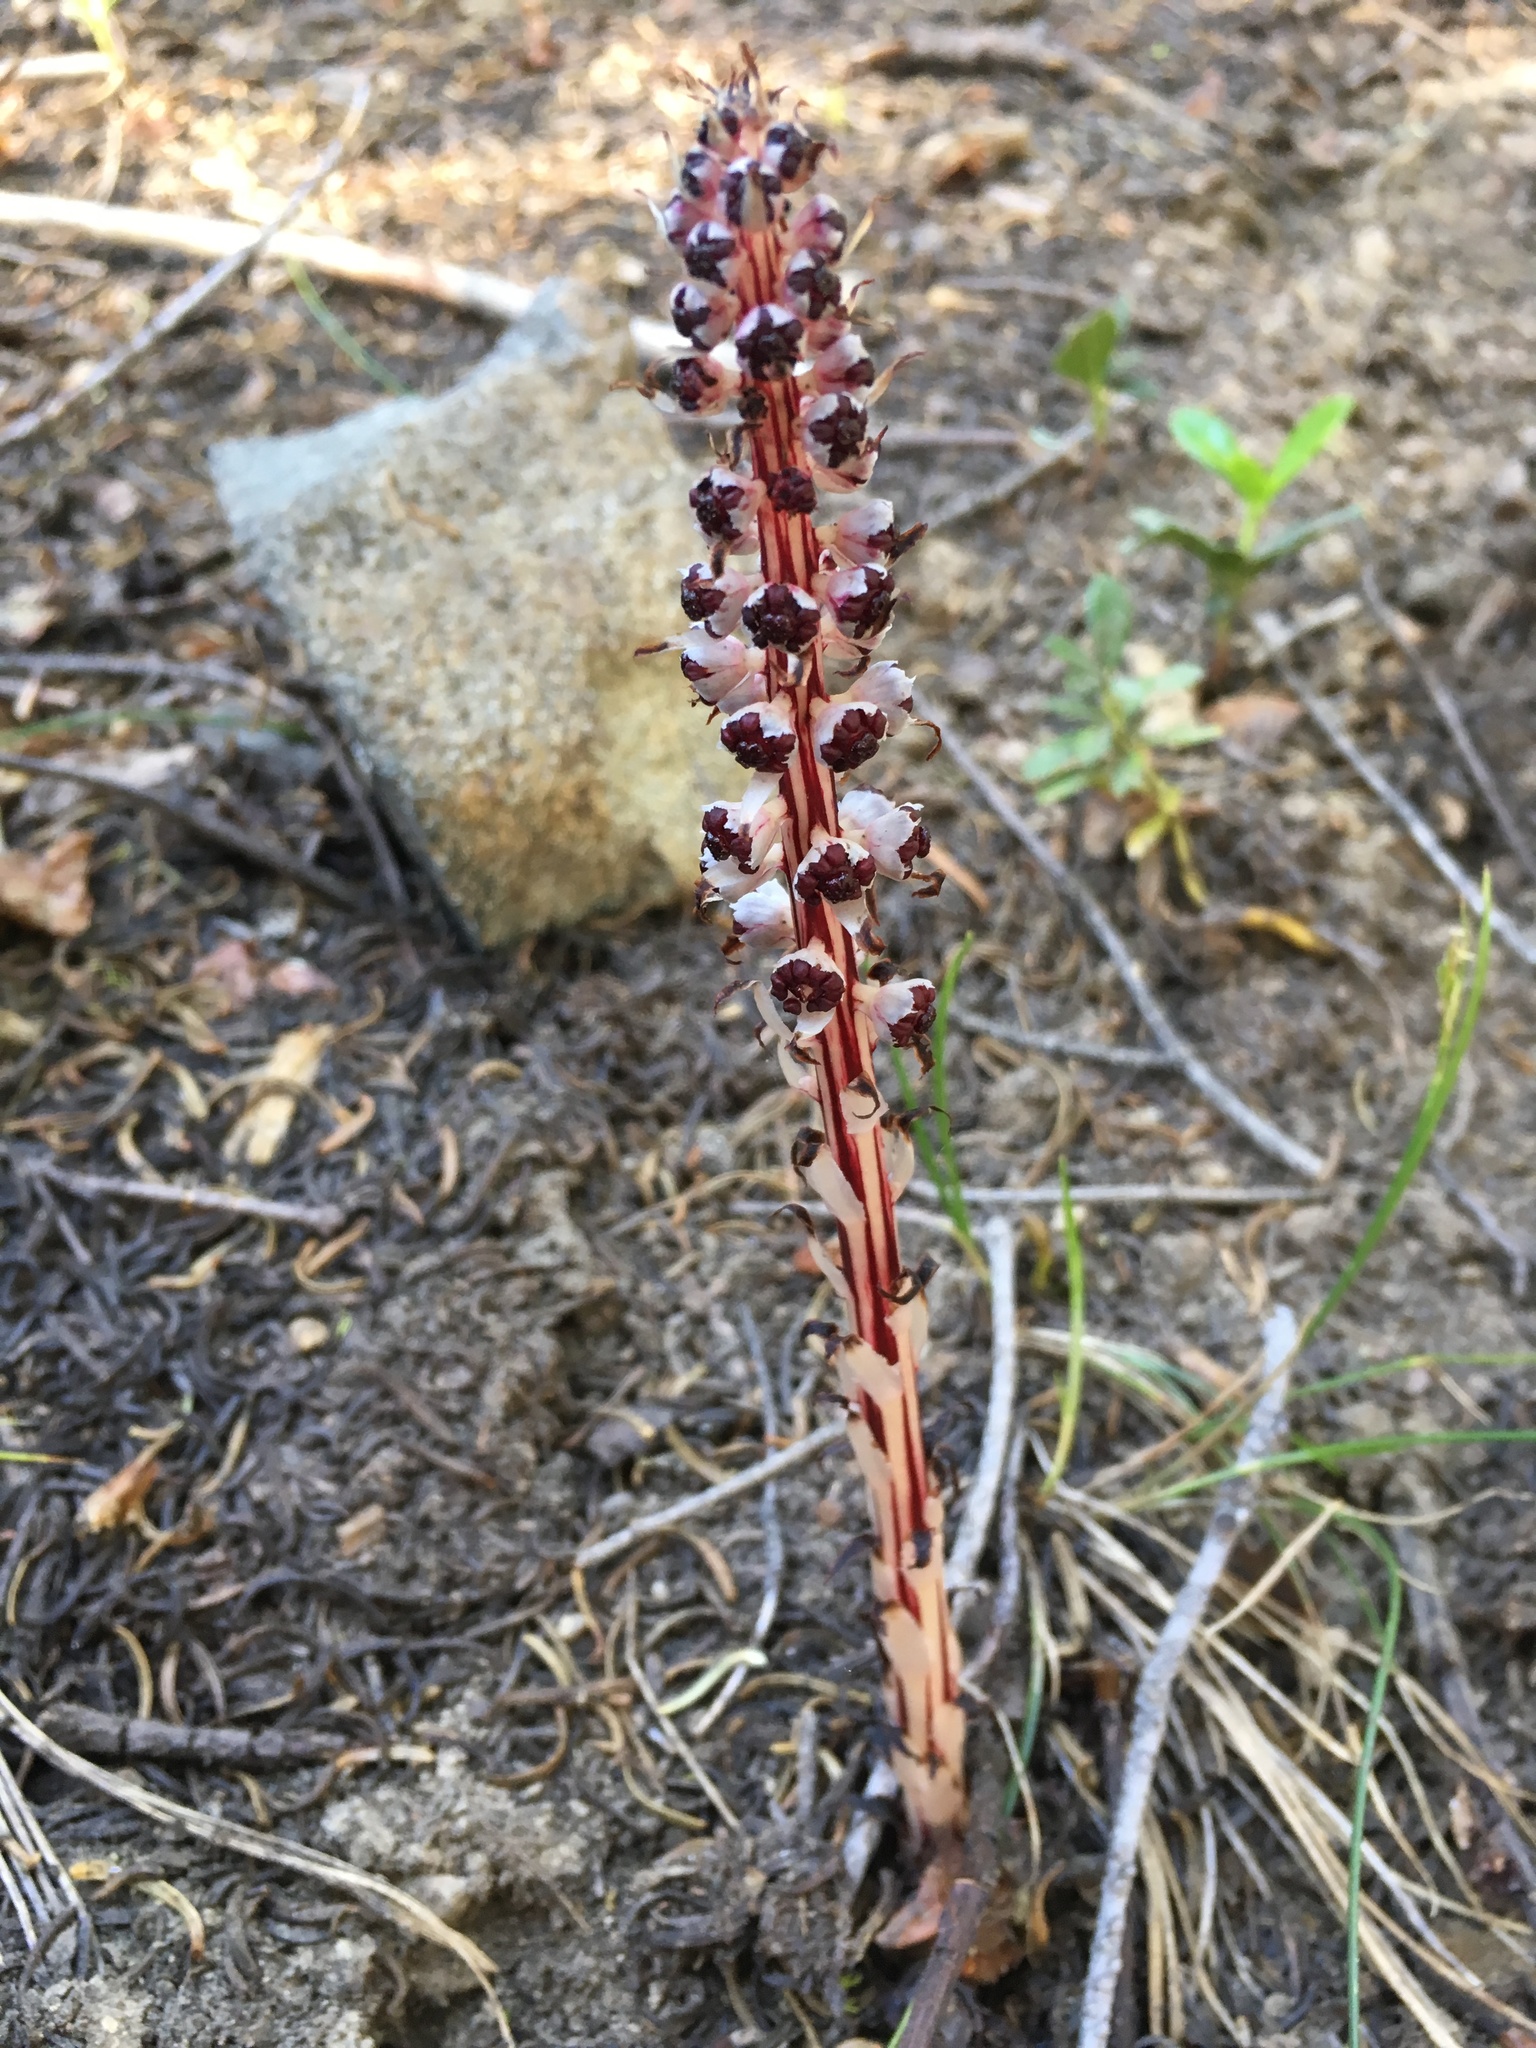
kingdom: Plantae
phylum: Tracheophyta
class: Magnoliopsida
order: Ericales
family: Ericaceae
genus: Allotropa
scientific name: Allotropa virgata
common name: Candy-striped allotropa
